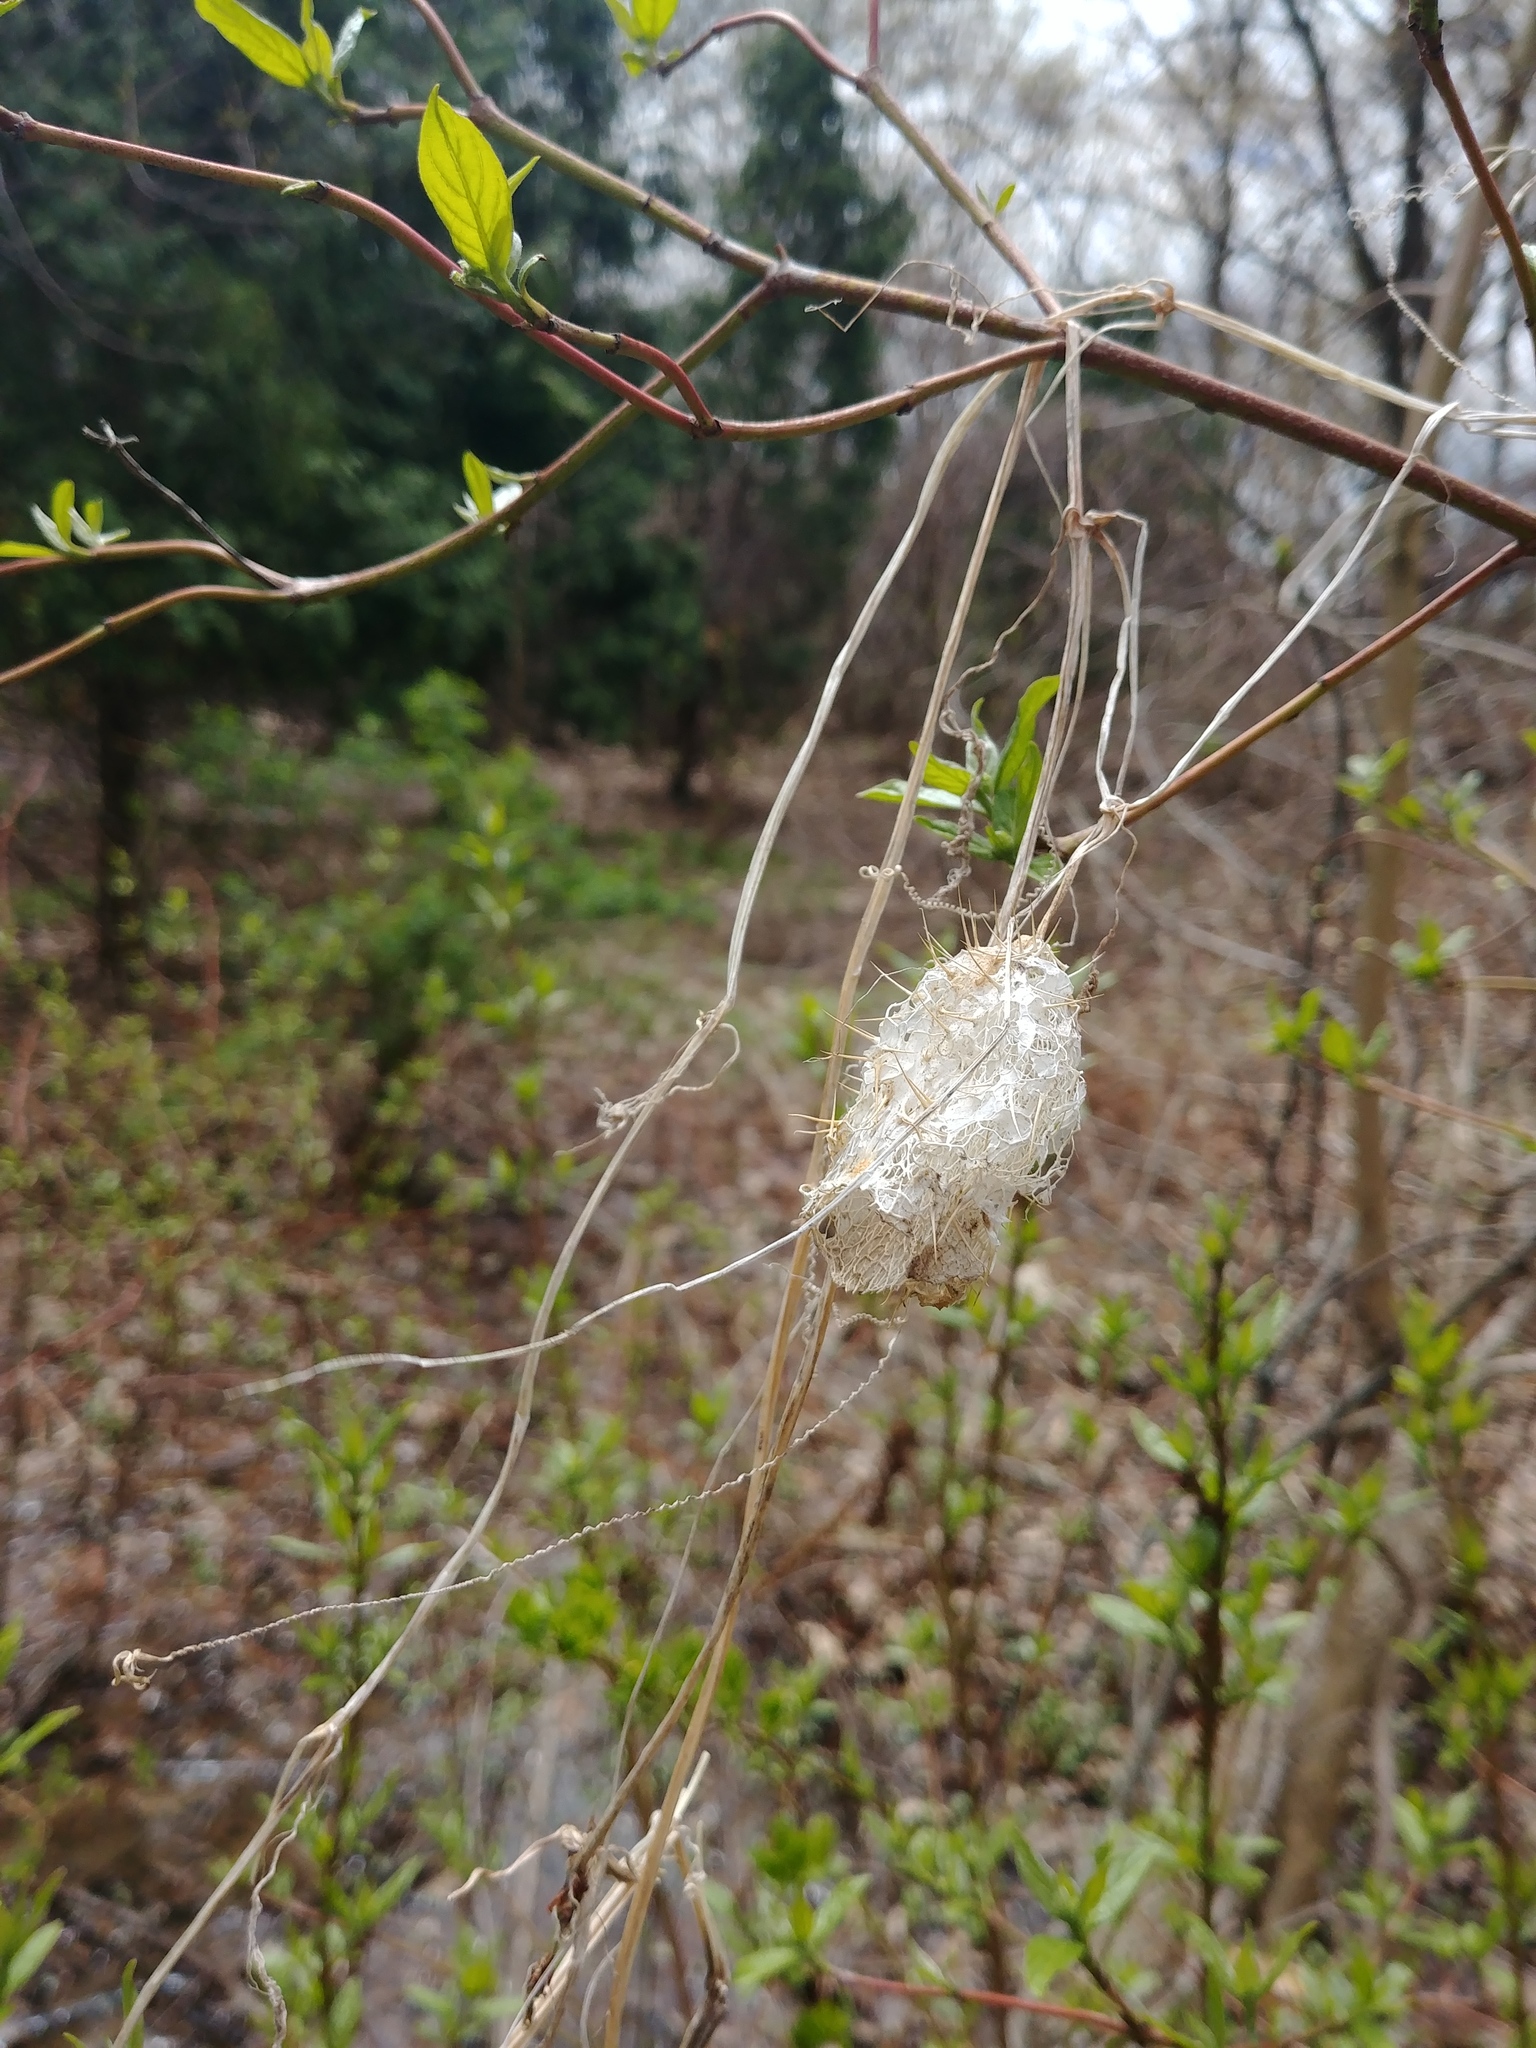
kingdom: Plantae
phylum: Tracheophyta
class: Magnoliopsida
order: Cucurbitales
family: Cucurbitaceae
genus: Echinocystis
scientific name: Echinocystis lobata
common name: Wild cucumber
